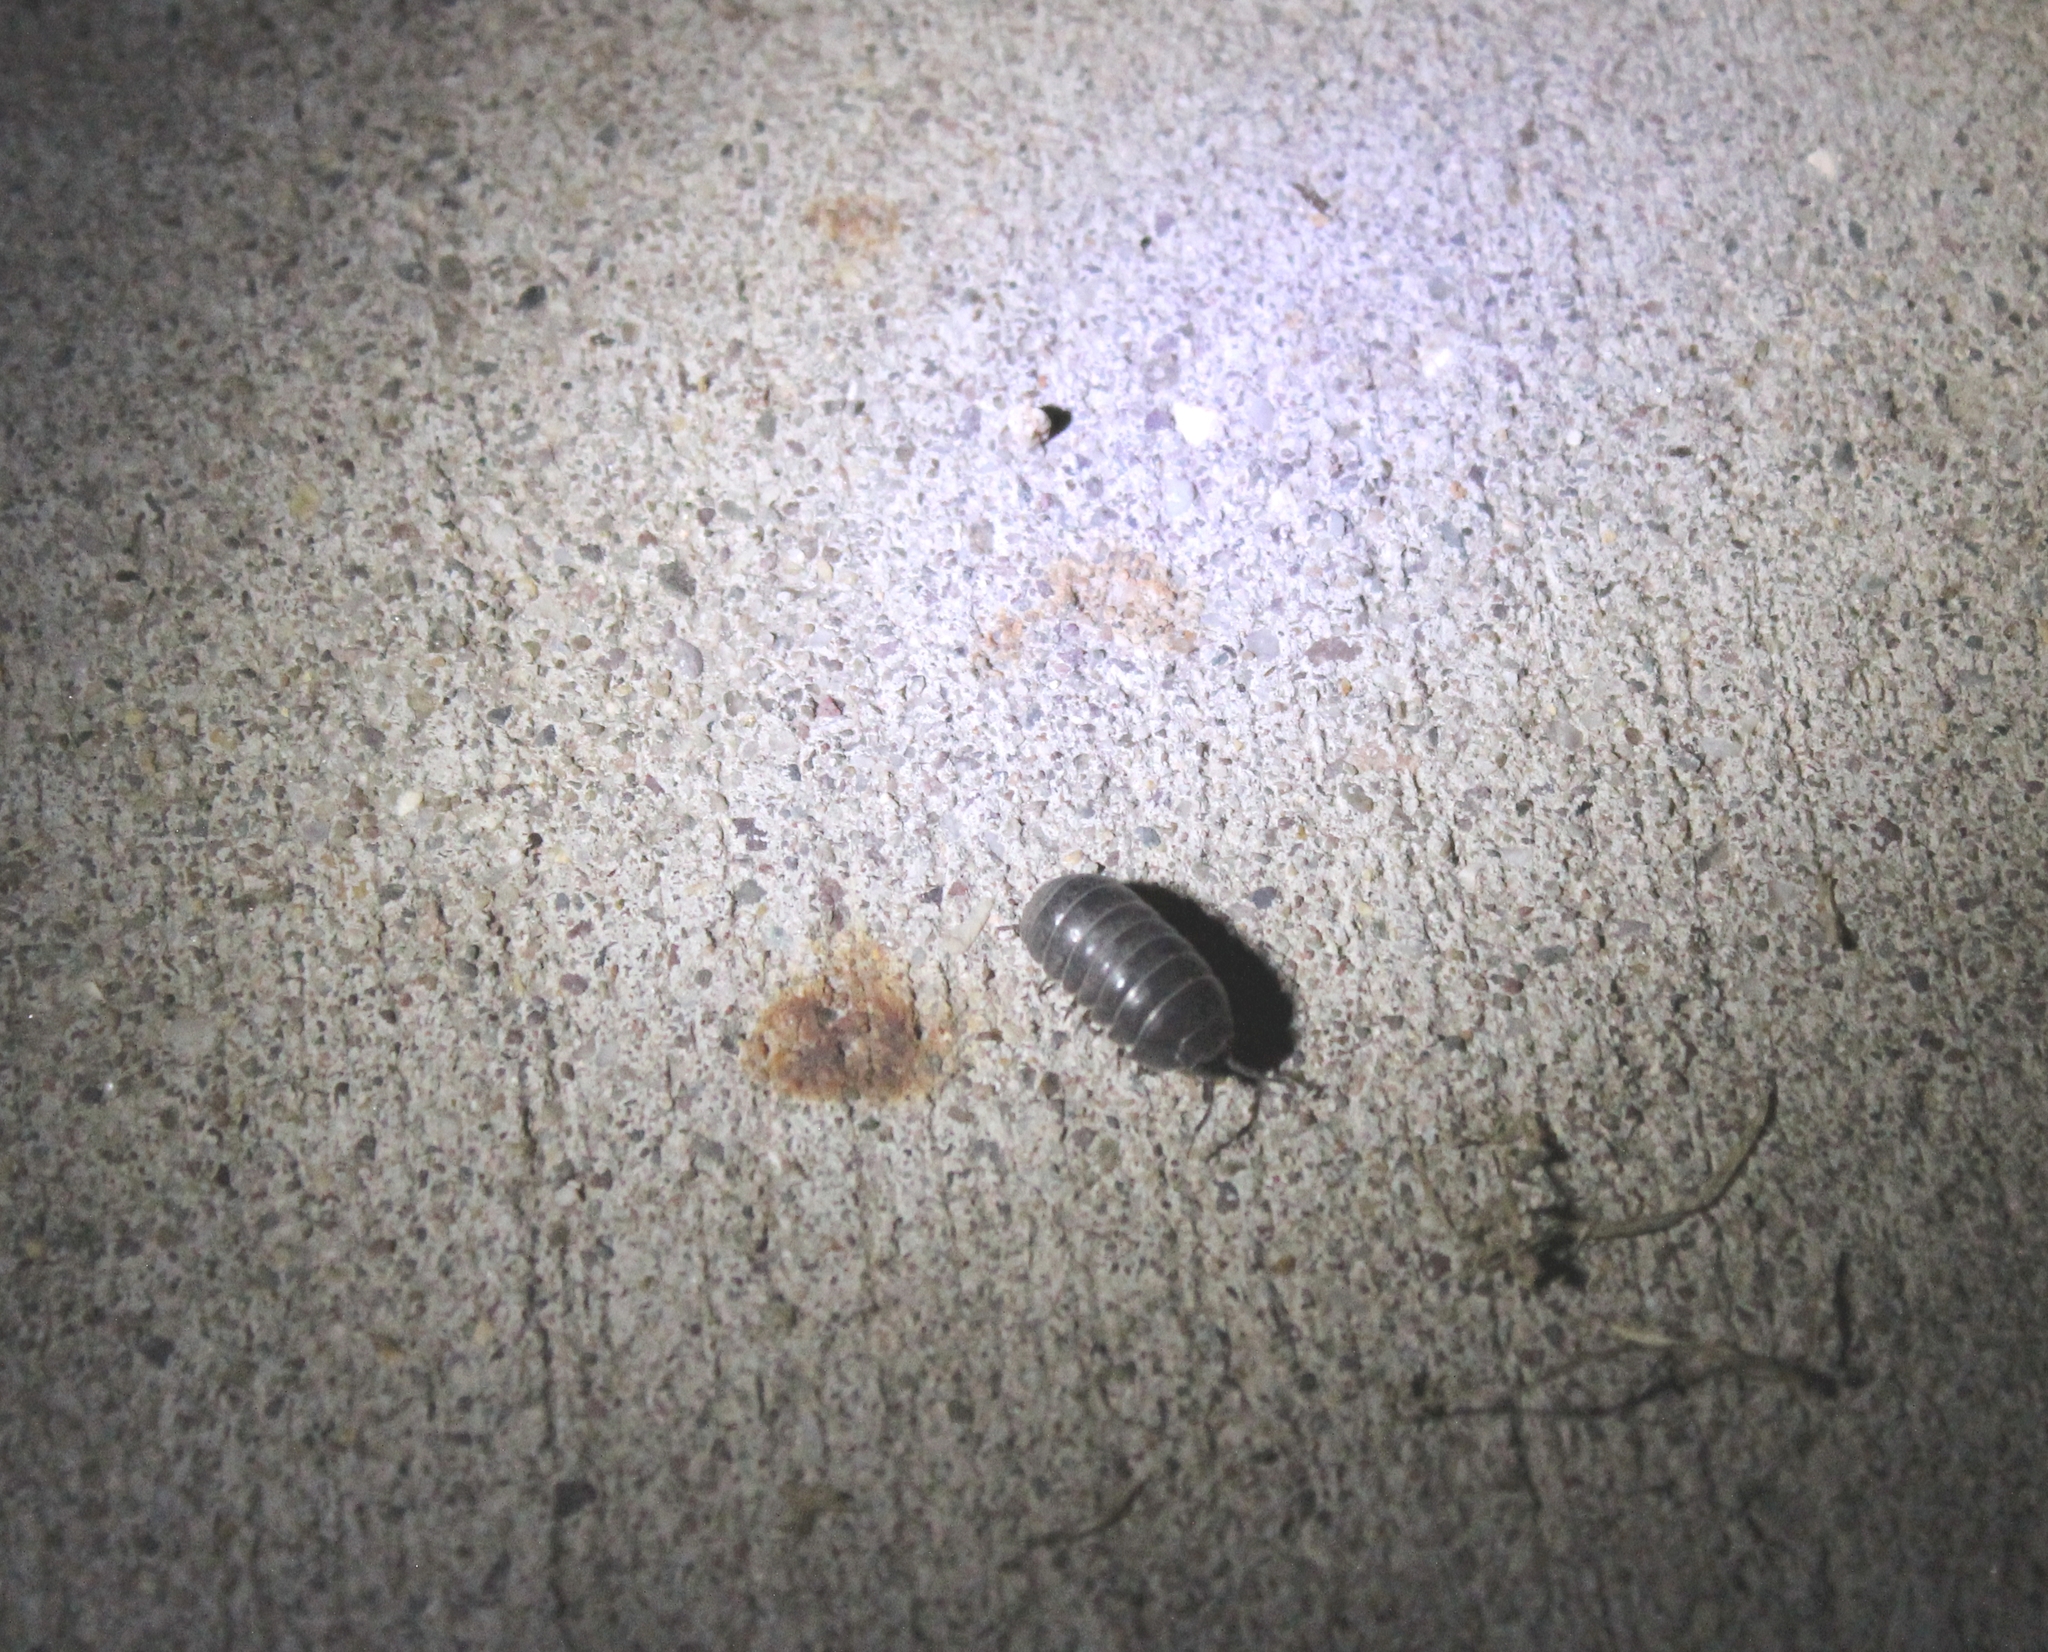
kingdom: Animalia
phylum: Arthropoda
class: Malacostraca
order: Isopoda
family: Armadillidiidae
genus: Armadillidium
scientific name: Armadillidium vulgare
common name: Common pill woodlouse
